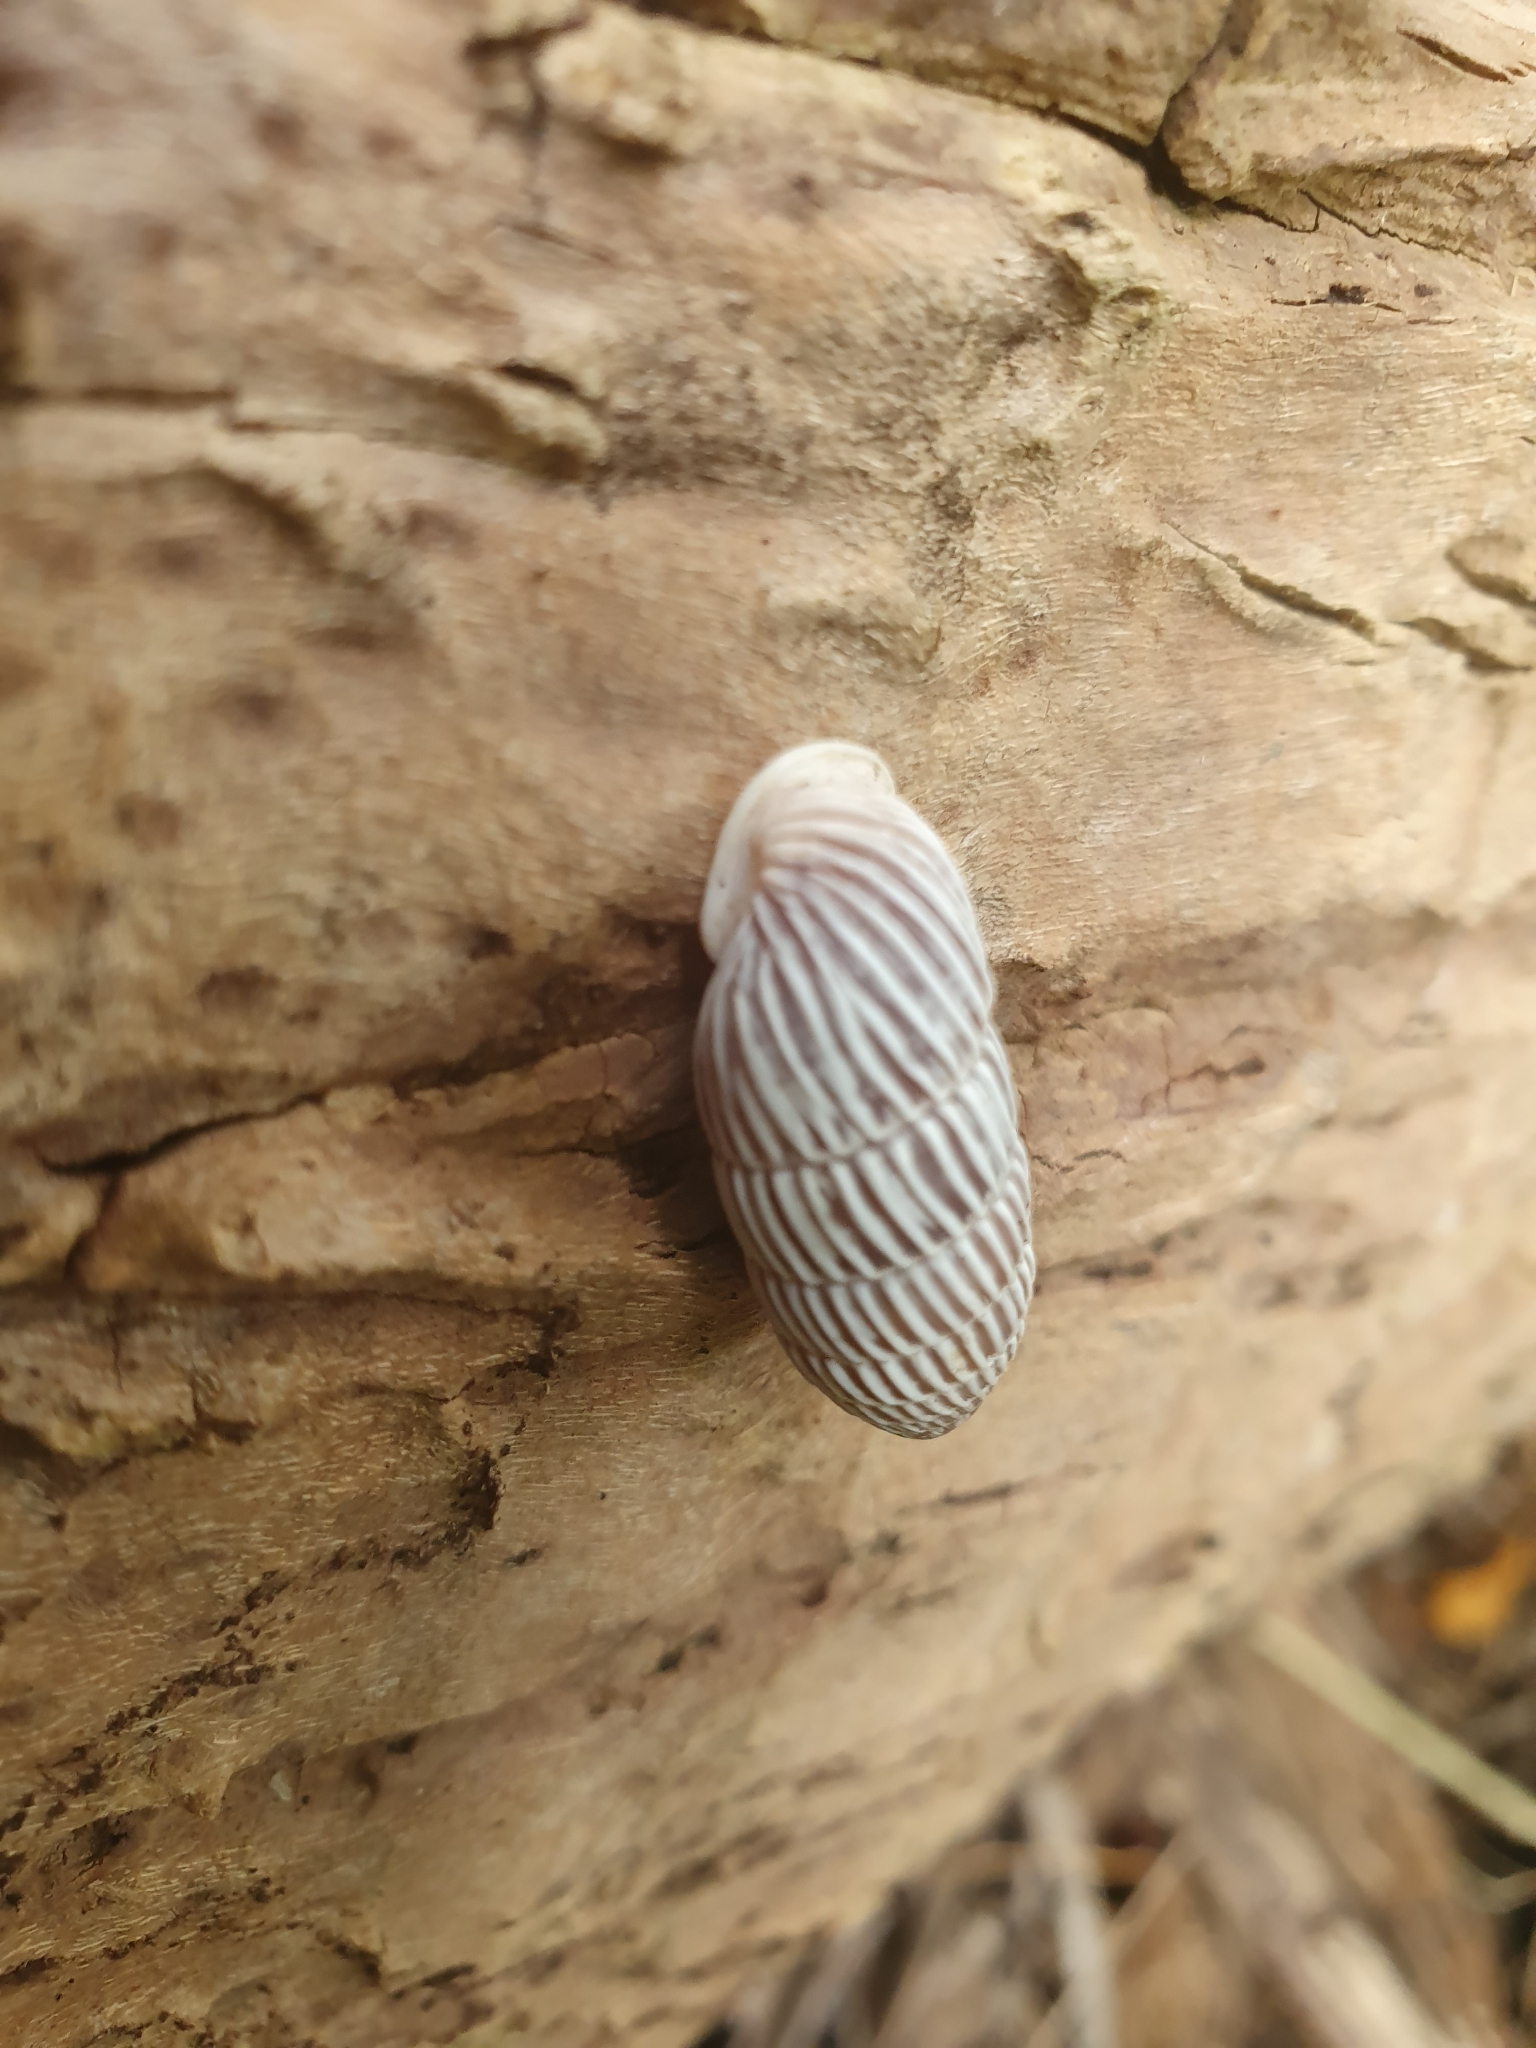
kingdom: Animalia
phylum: Mollusca
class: Gastropoda
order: Stylommatophora
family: Cerionidae
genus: Cerion
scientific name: Cerion striatellum
